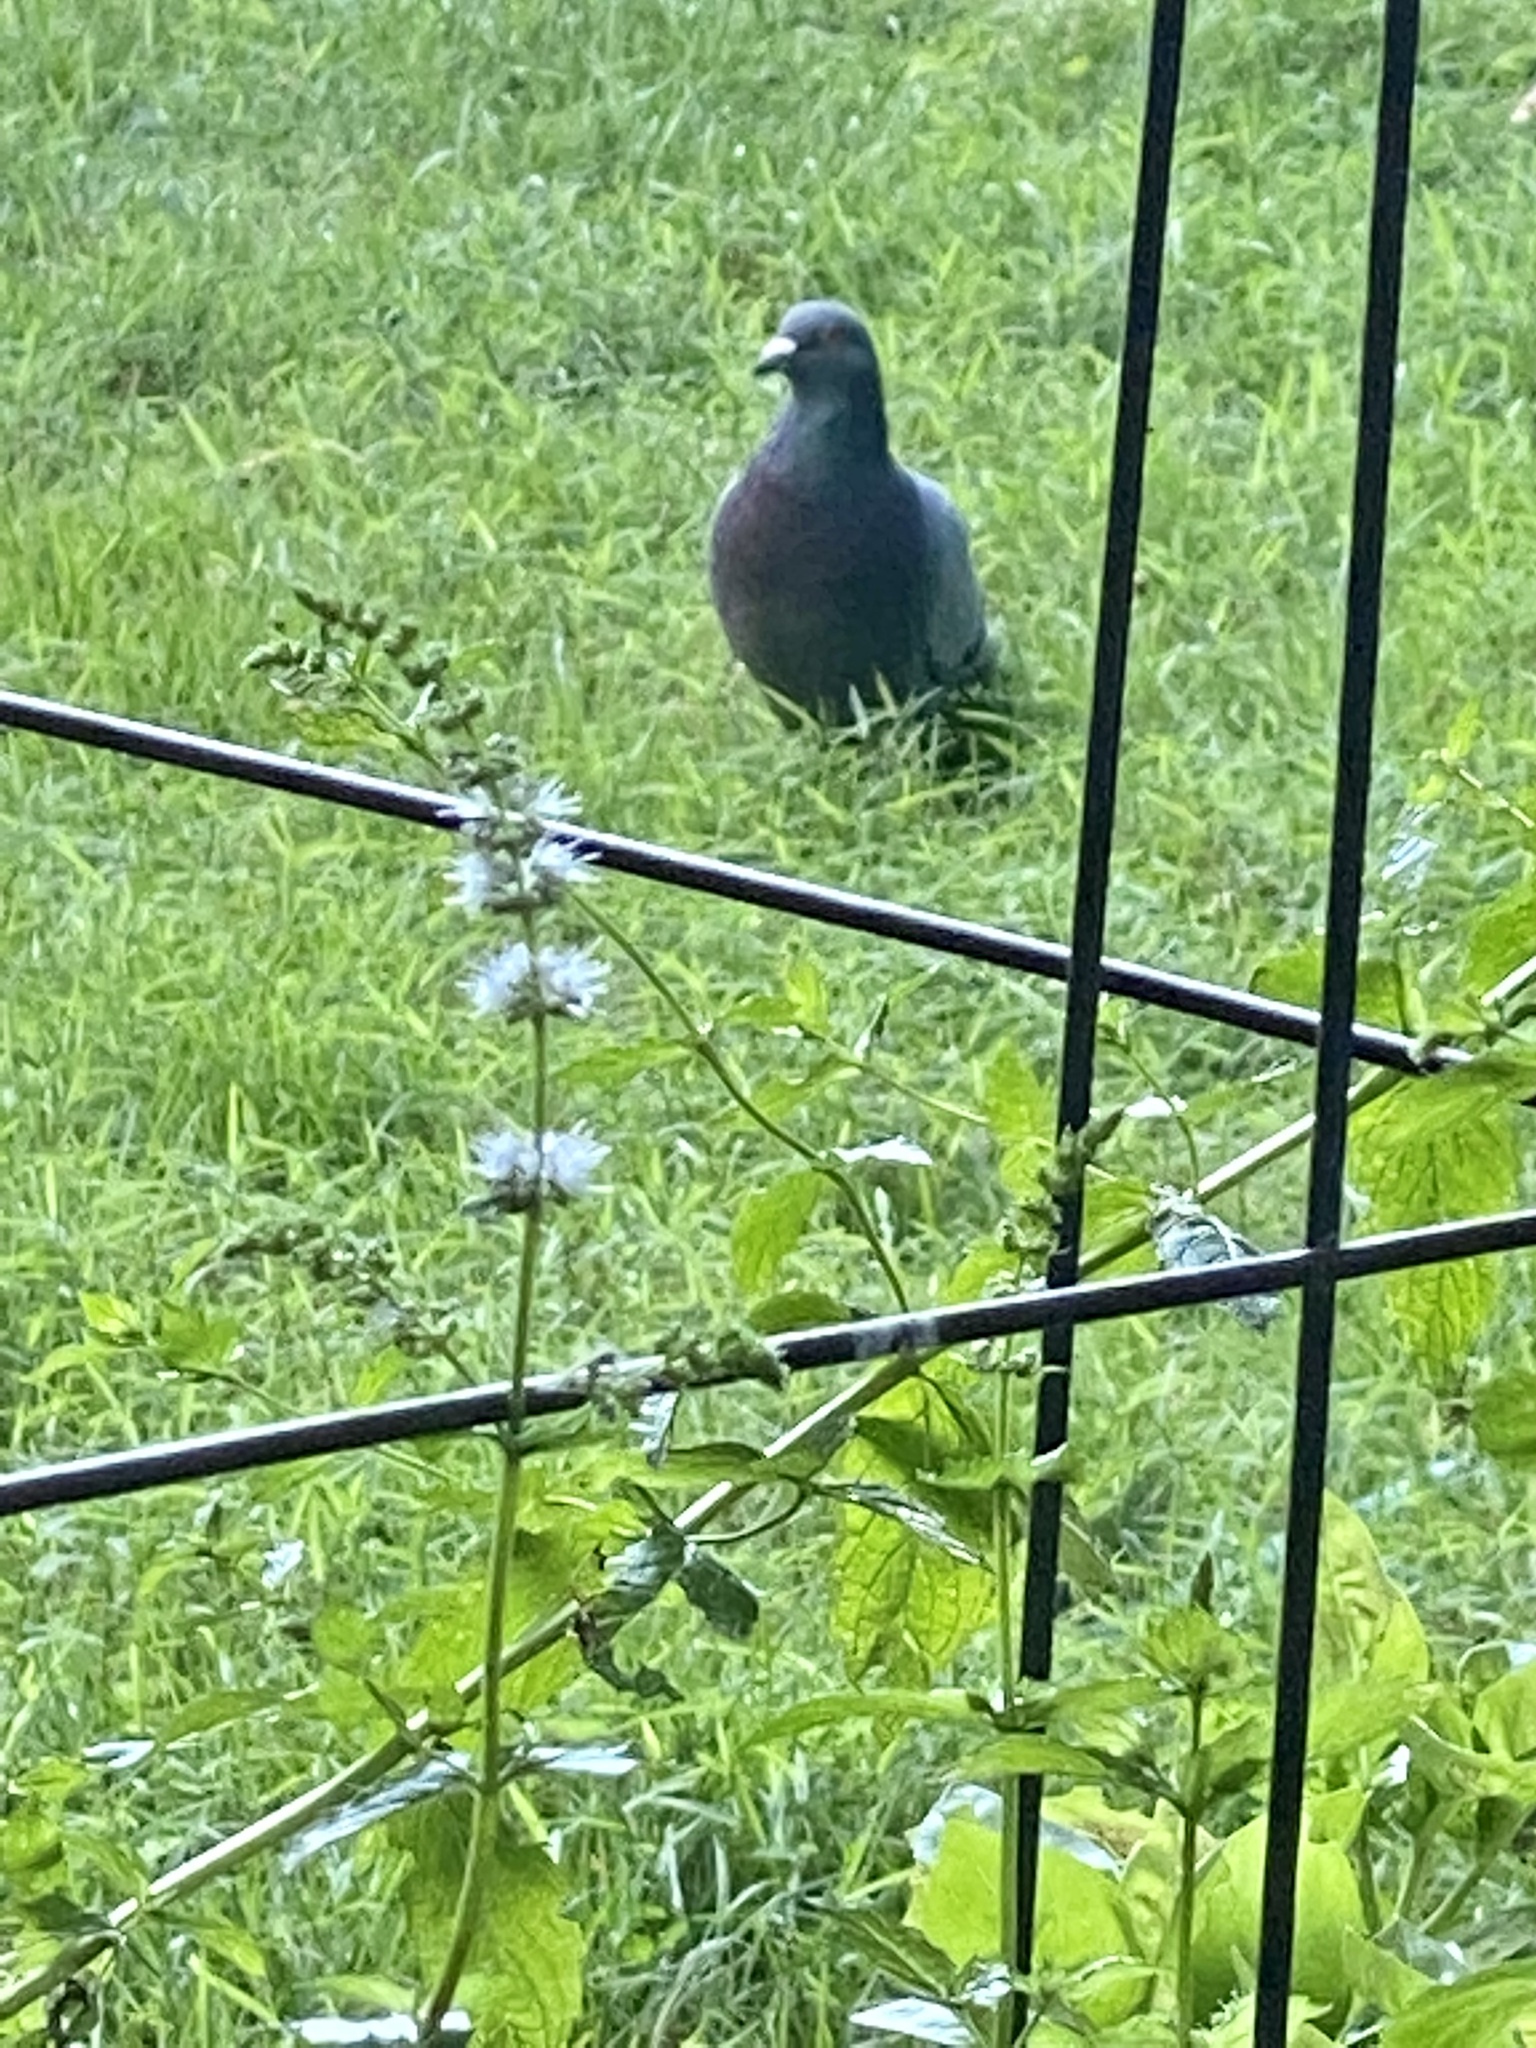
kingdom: Animalia
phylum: Chordata
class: Aves
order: Columbiformes
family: Columbidae
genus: Columba
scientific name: Columba livia
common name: Rock pigeon
